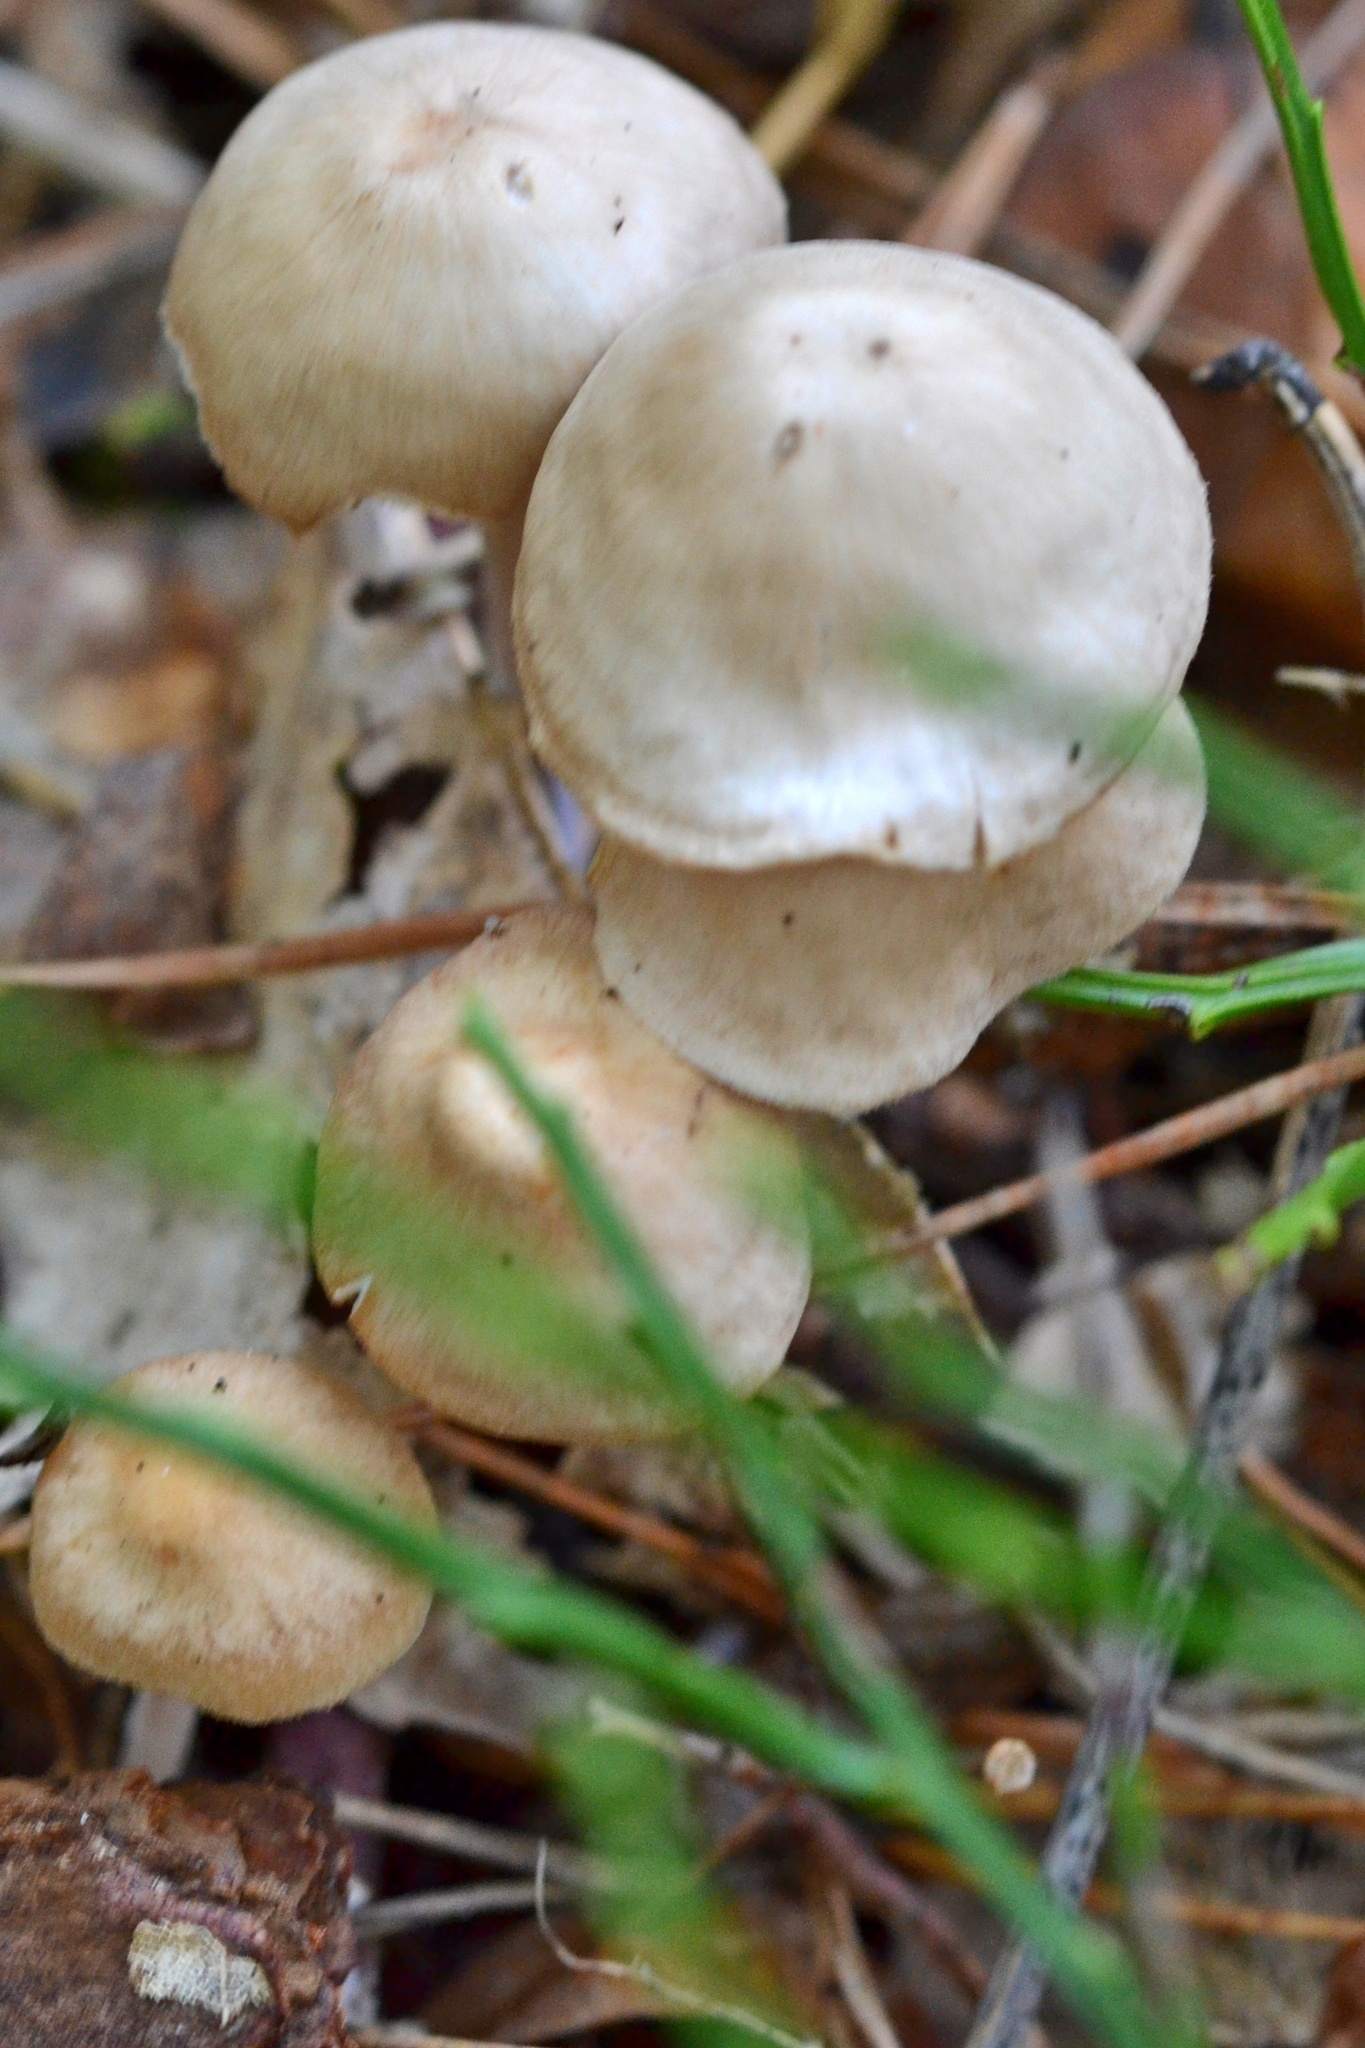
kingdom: Fungi
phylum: Basidiomycota
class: Agaricomycetes
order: Agaricales
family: Omphalotaceae
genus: Collybiopsis
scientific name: Collybiopsis confluens
